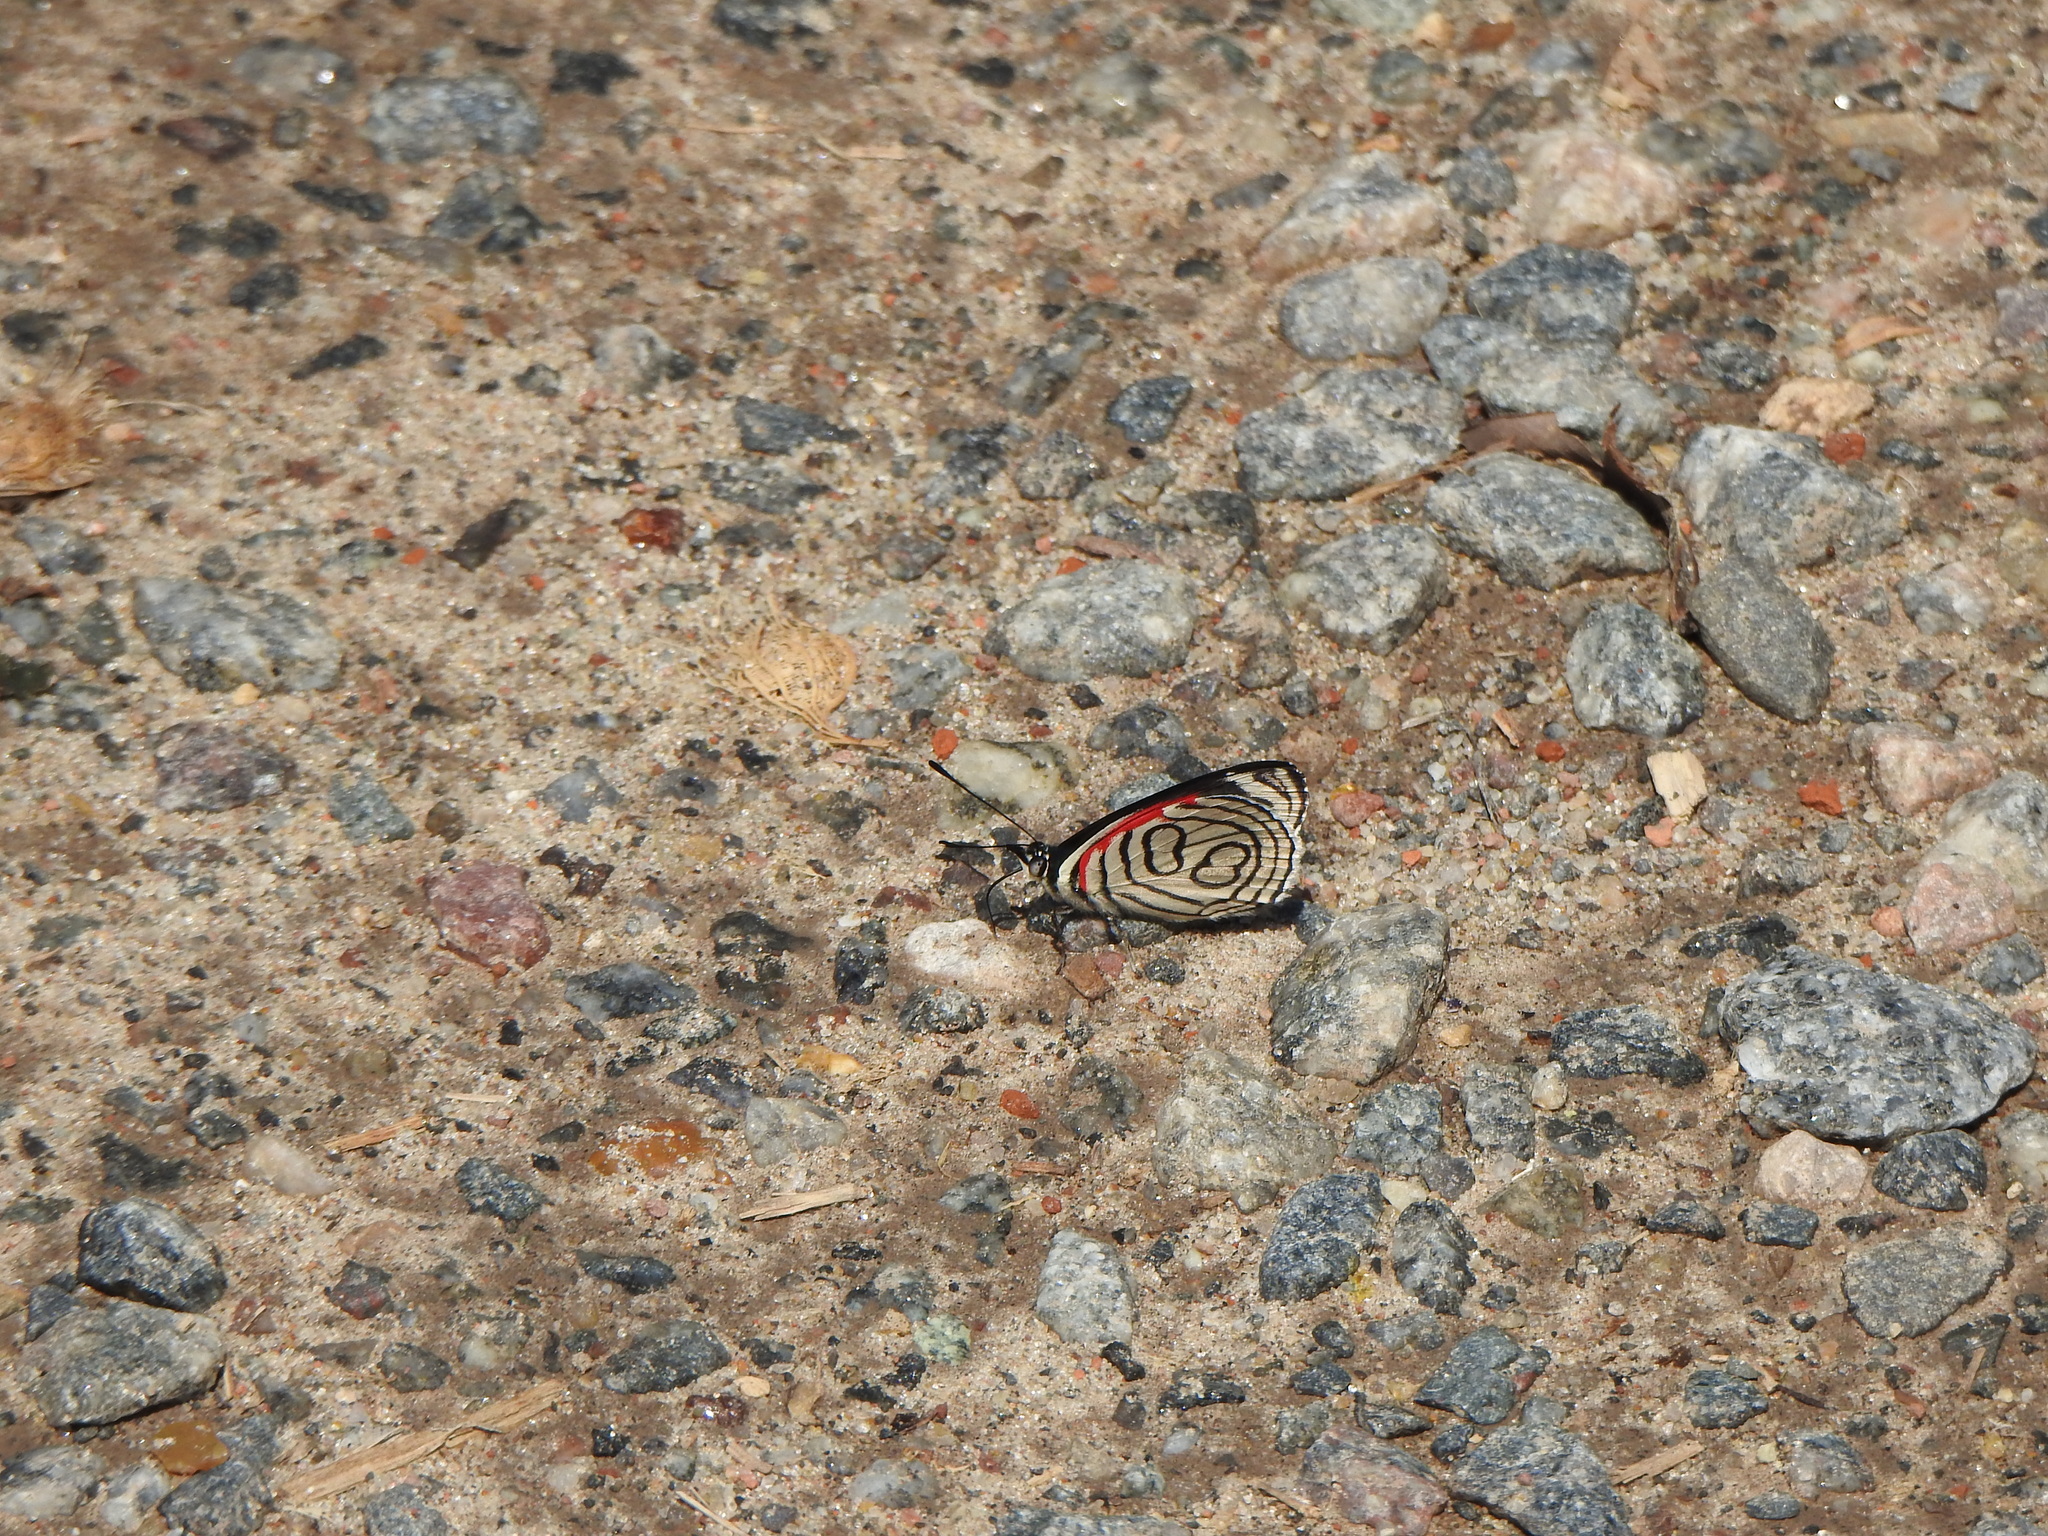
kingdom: Animalia
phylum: Arthropoda
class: Insecta
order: Lepidoptera
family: Nymphalidae
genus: Diaethria
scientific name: Diaethria candrena
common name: Number eighty
